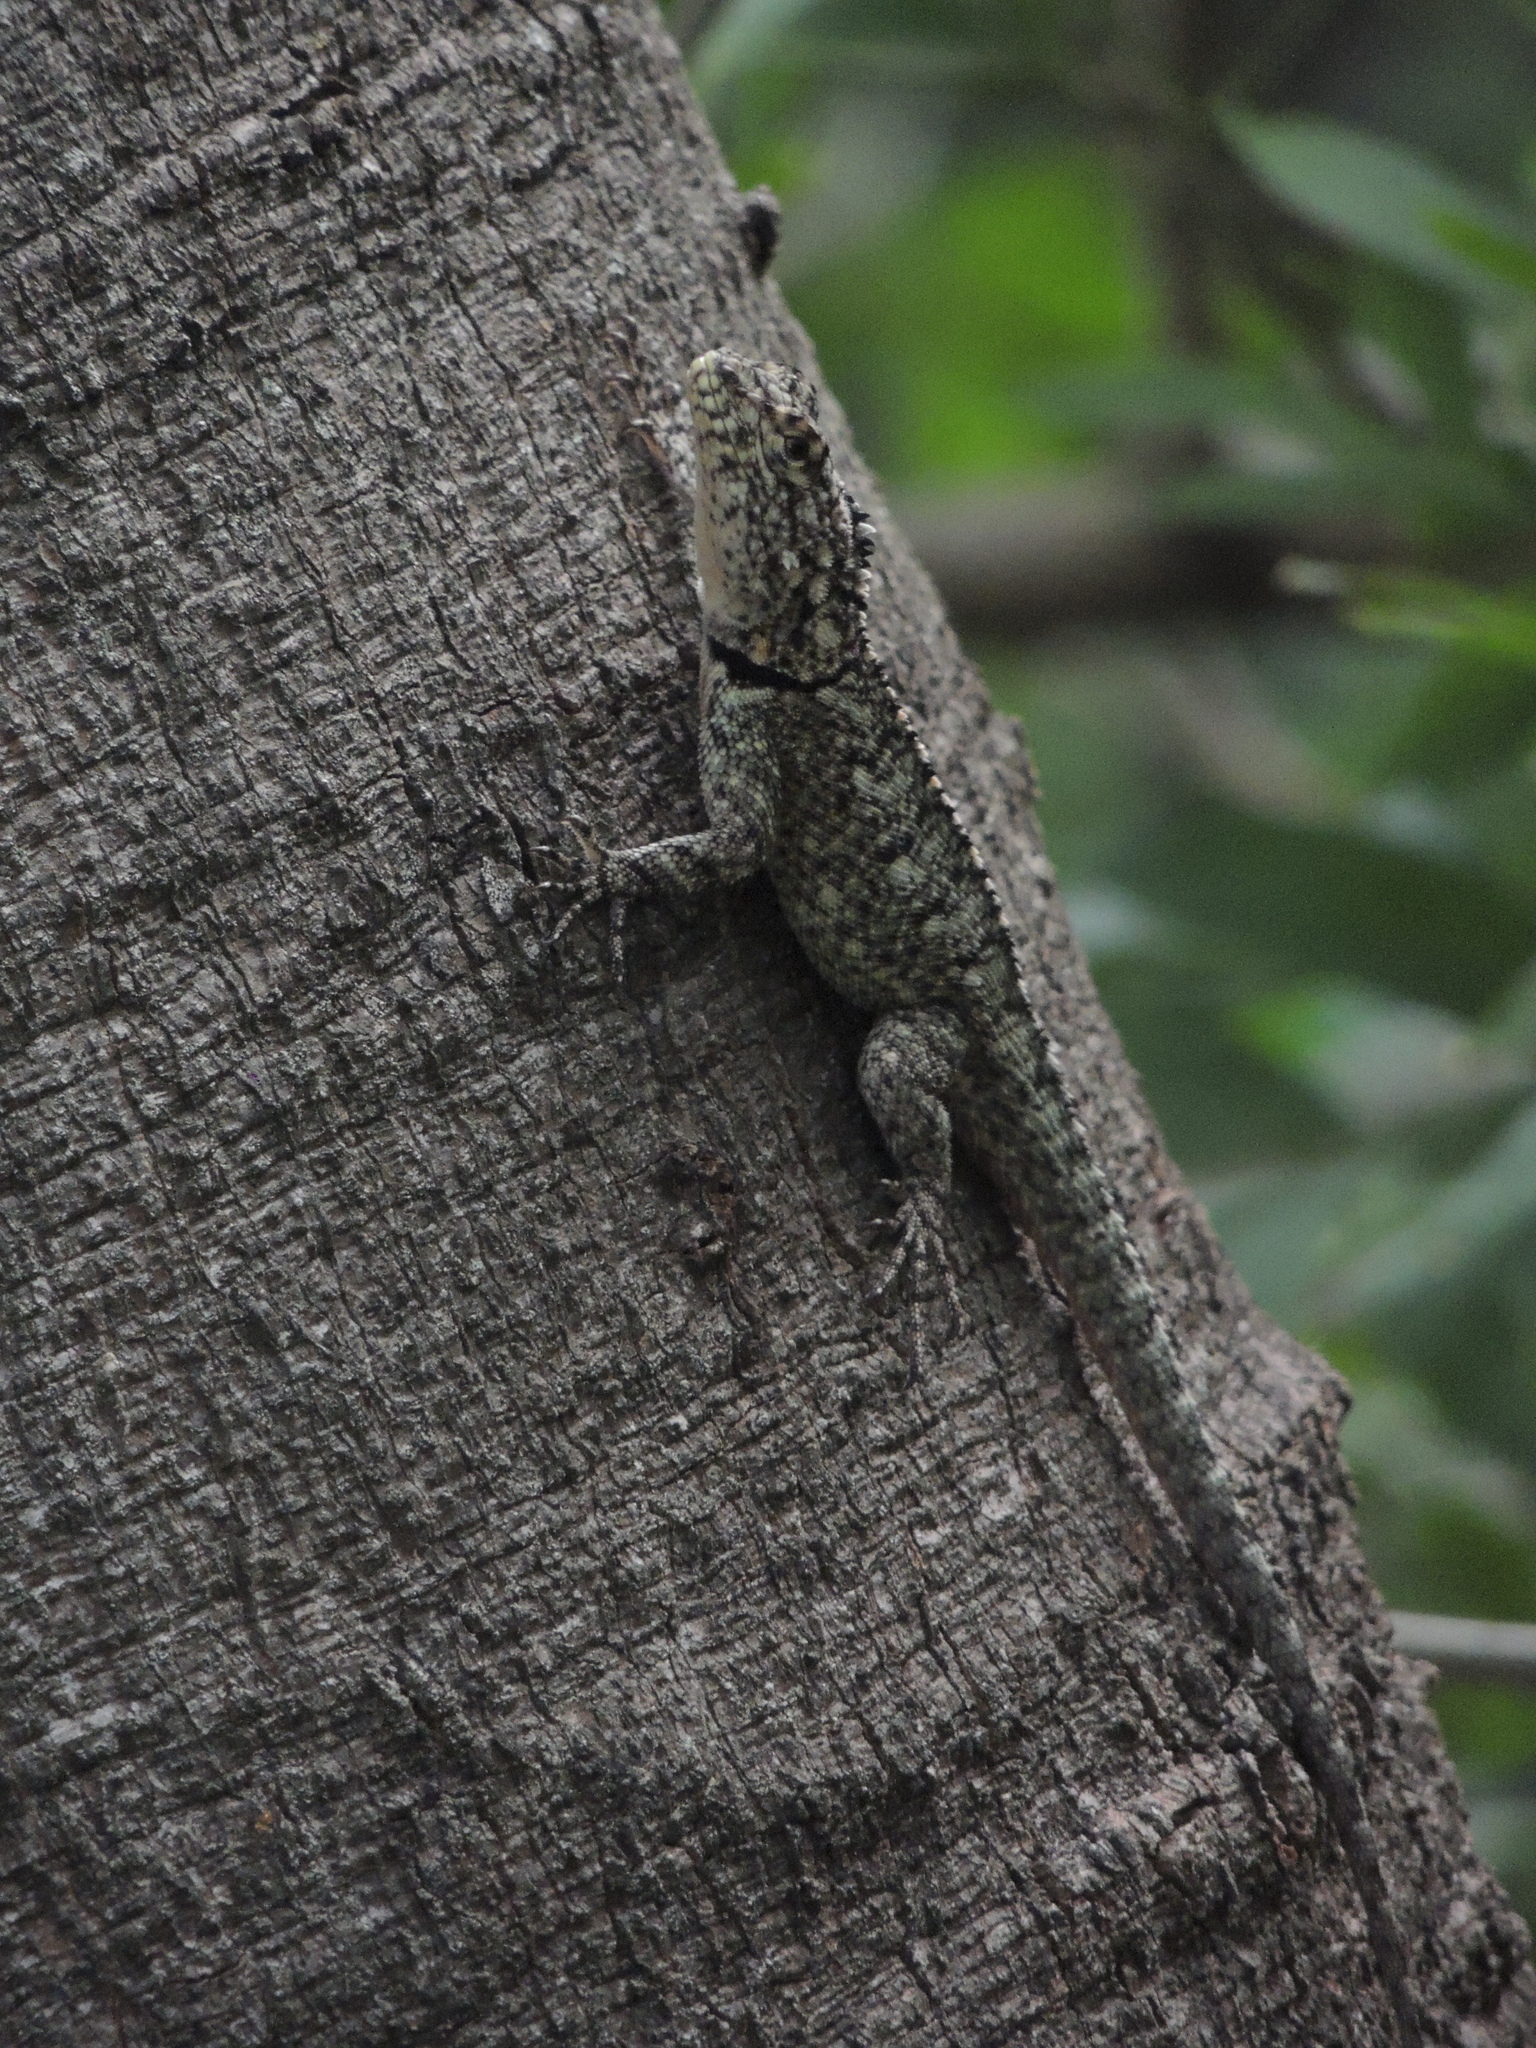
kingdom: Animalia
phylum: Chordata
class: Squamata
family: Tropiduridae
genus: Tropidurus
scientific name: Tropidurus spinulosus
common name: Spiny lava lizard
